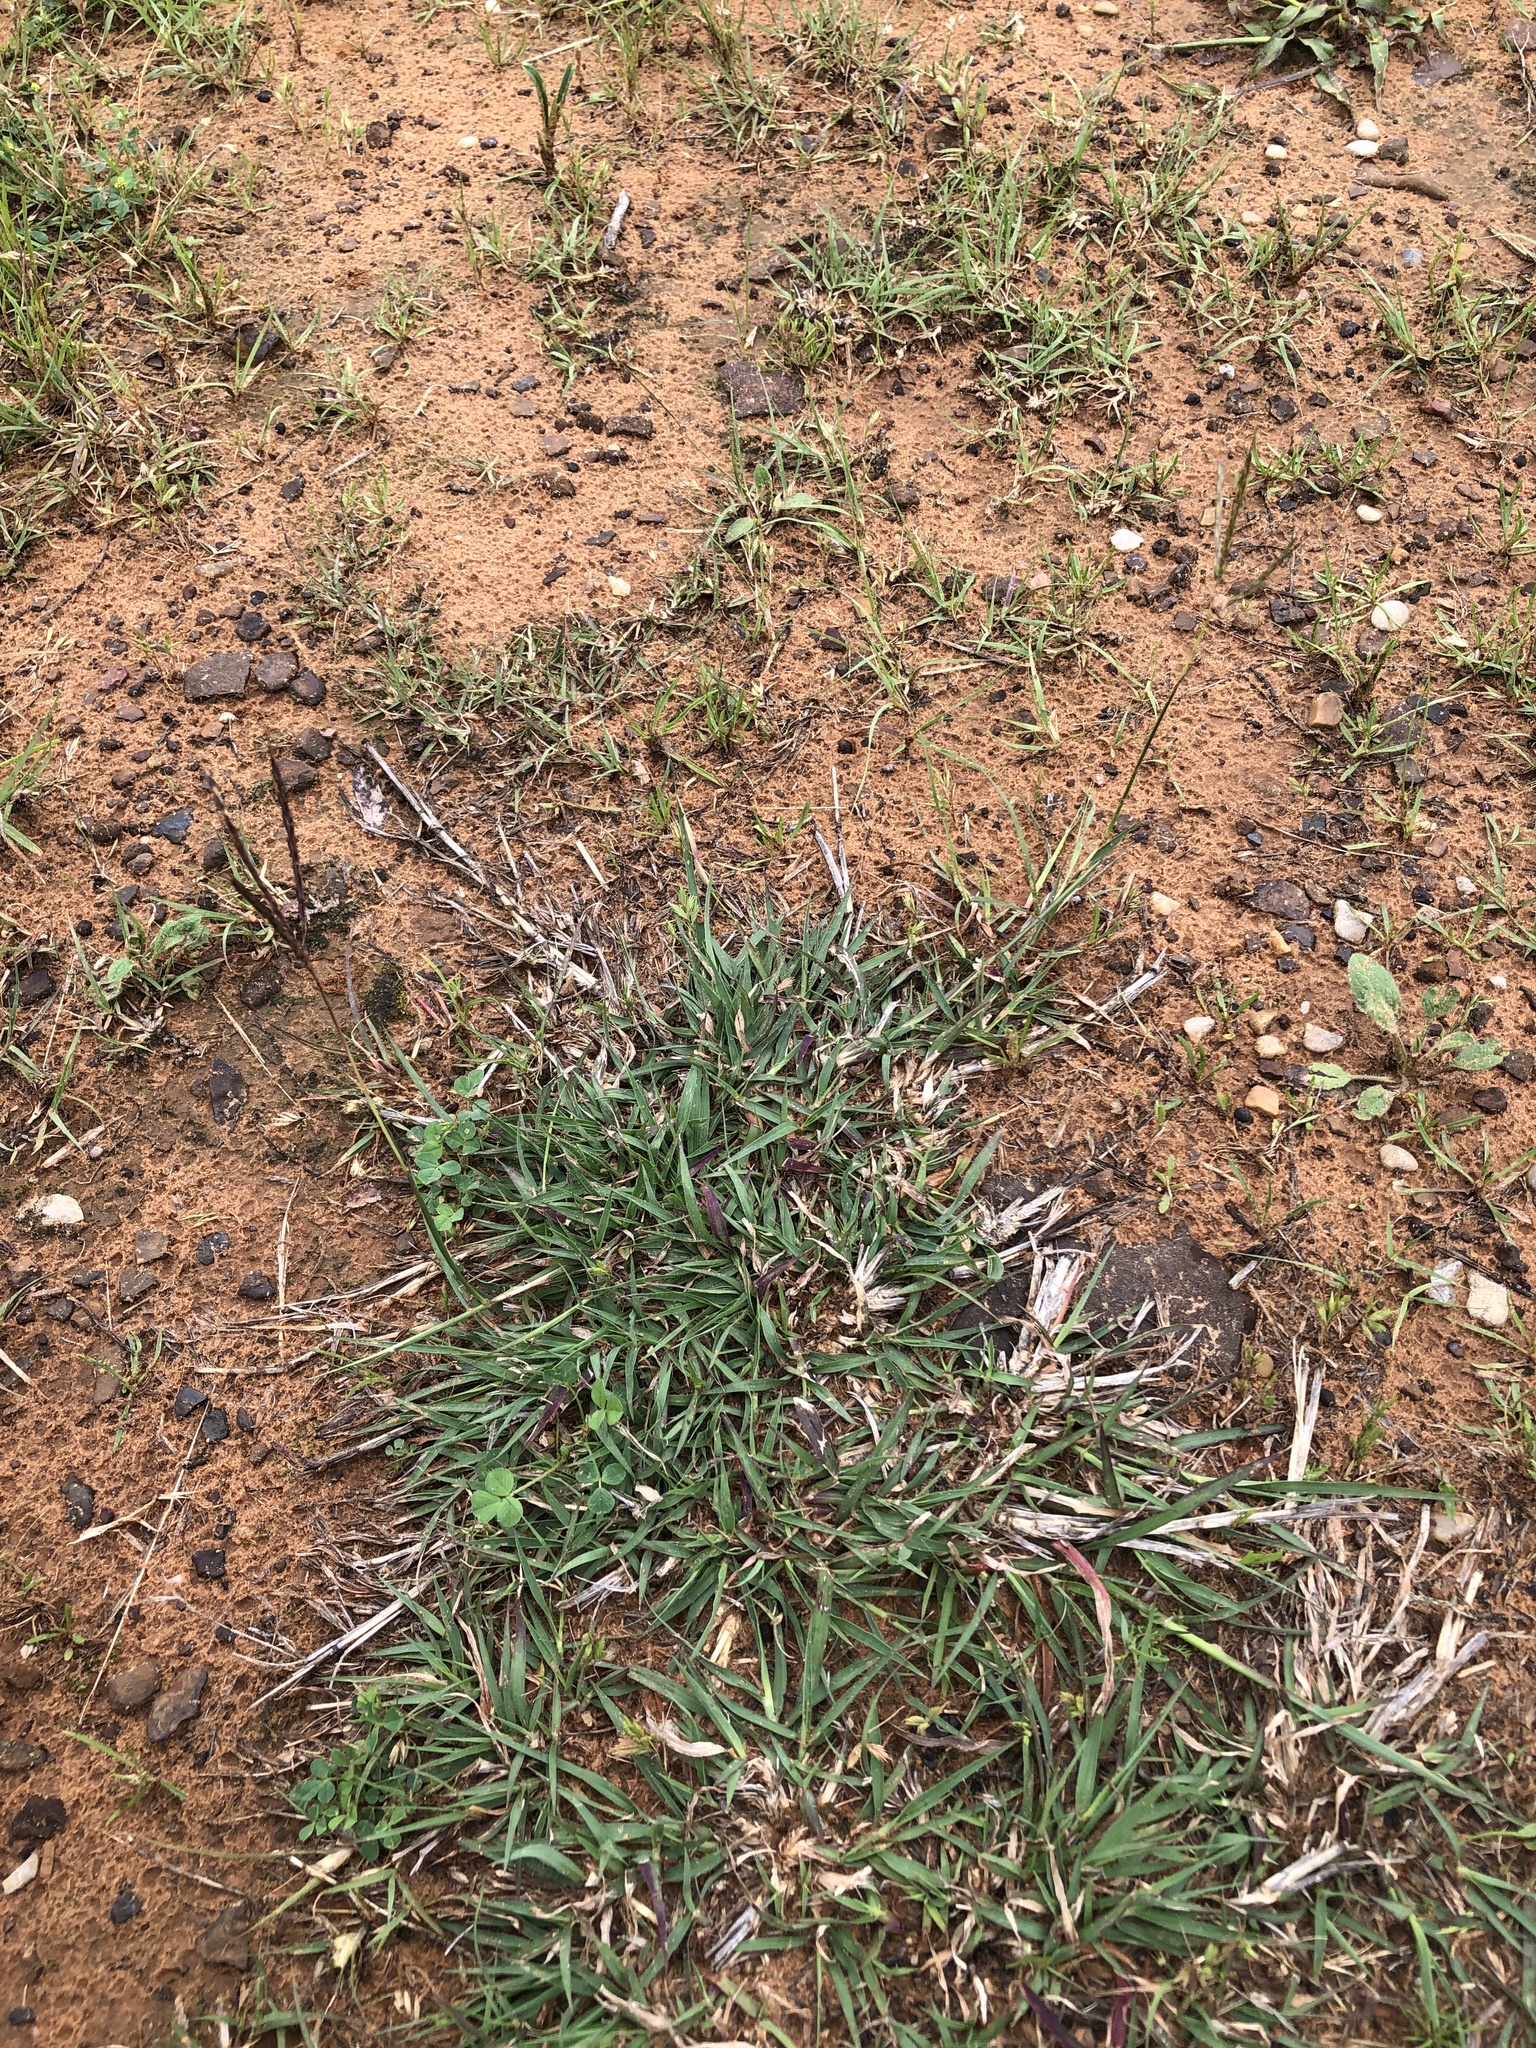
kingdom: Plantae
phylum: Tracheophyta
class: Liliopsida
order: Poales
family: Poaceae
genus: Bothriochloa
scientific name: Bothriochloa ischaemum
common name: Yellow bluestem
